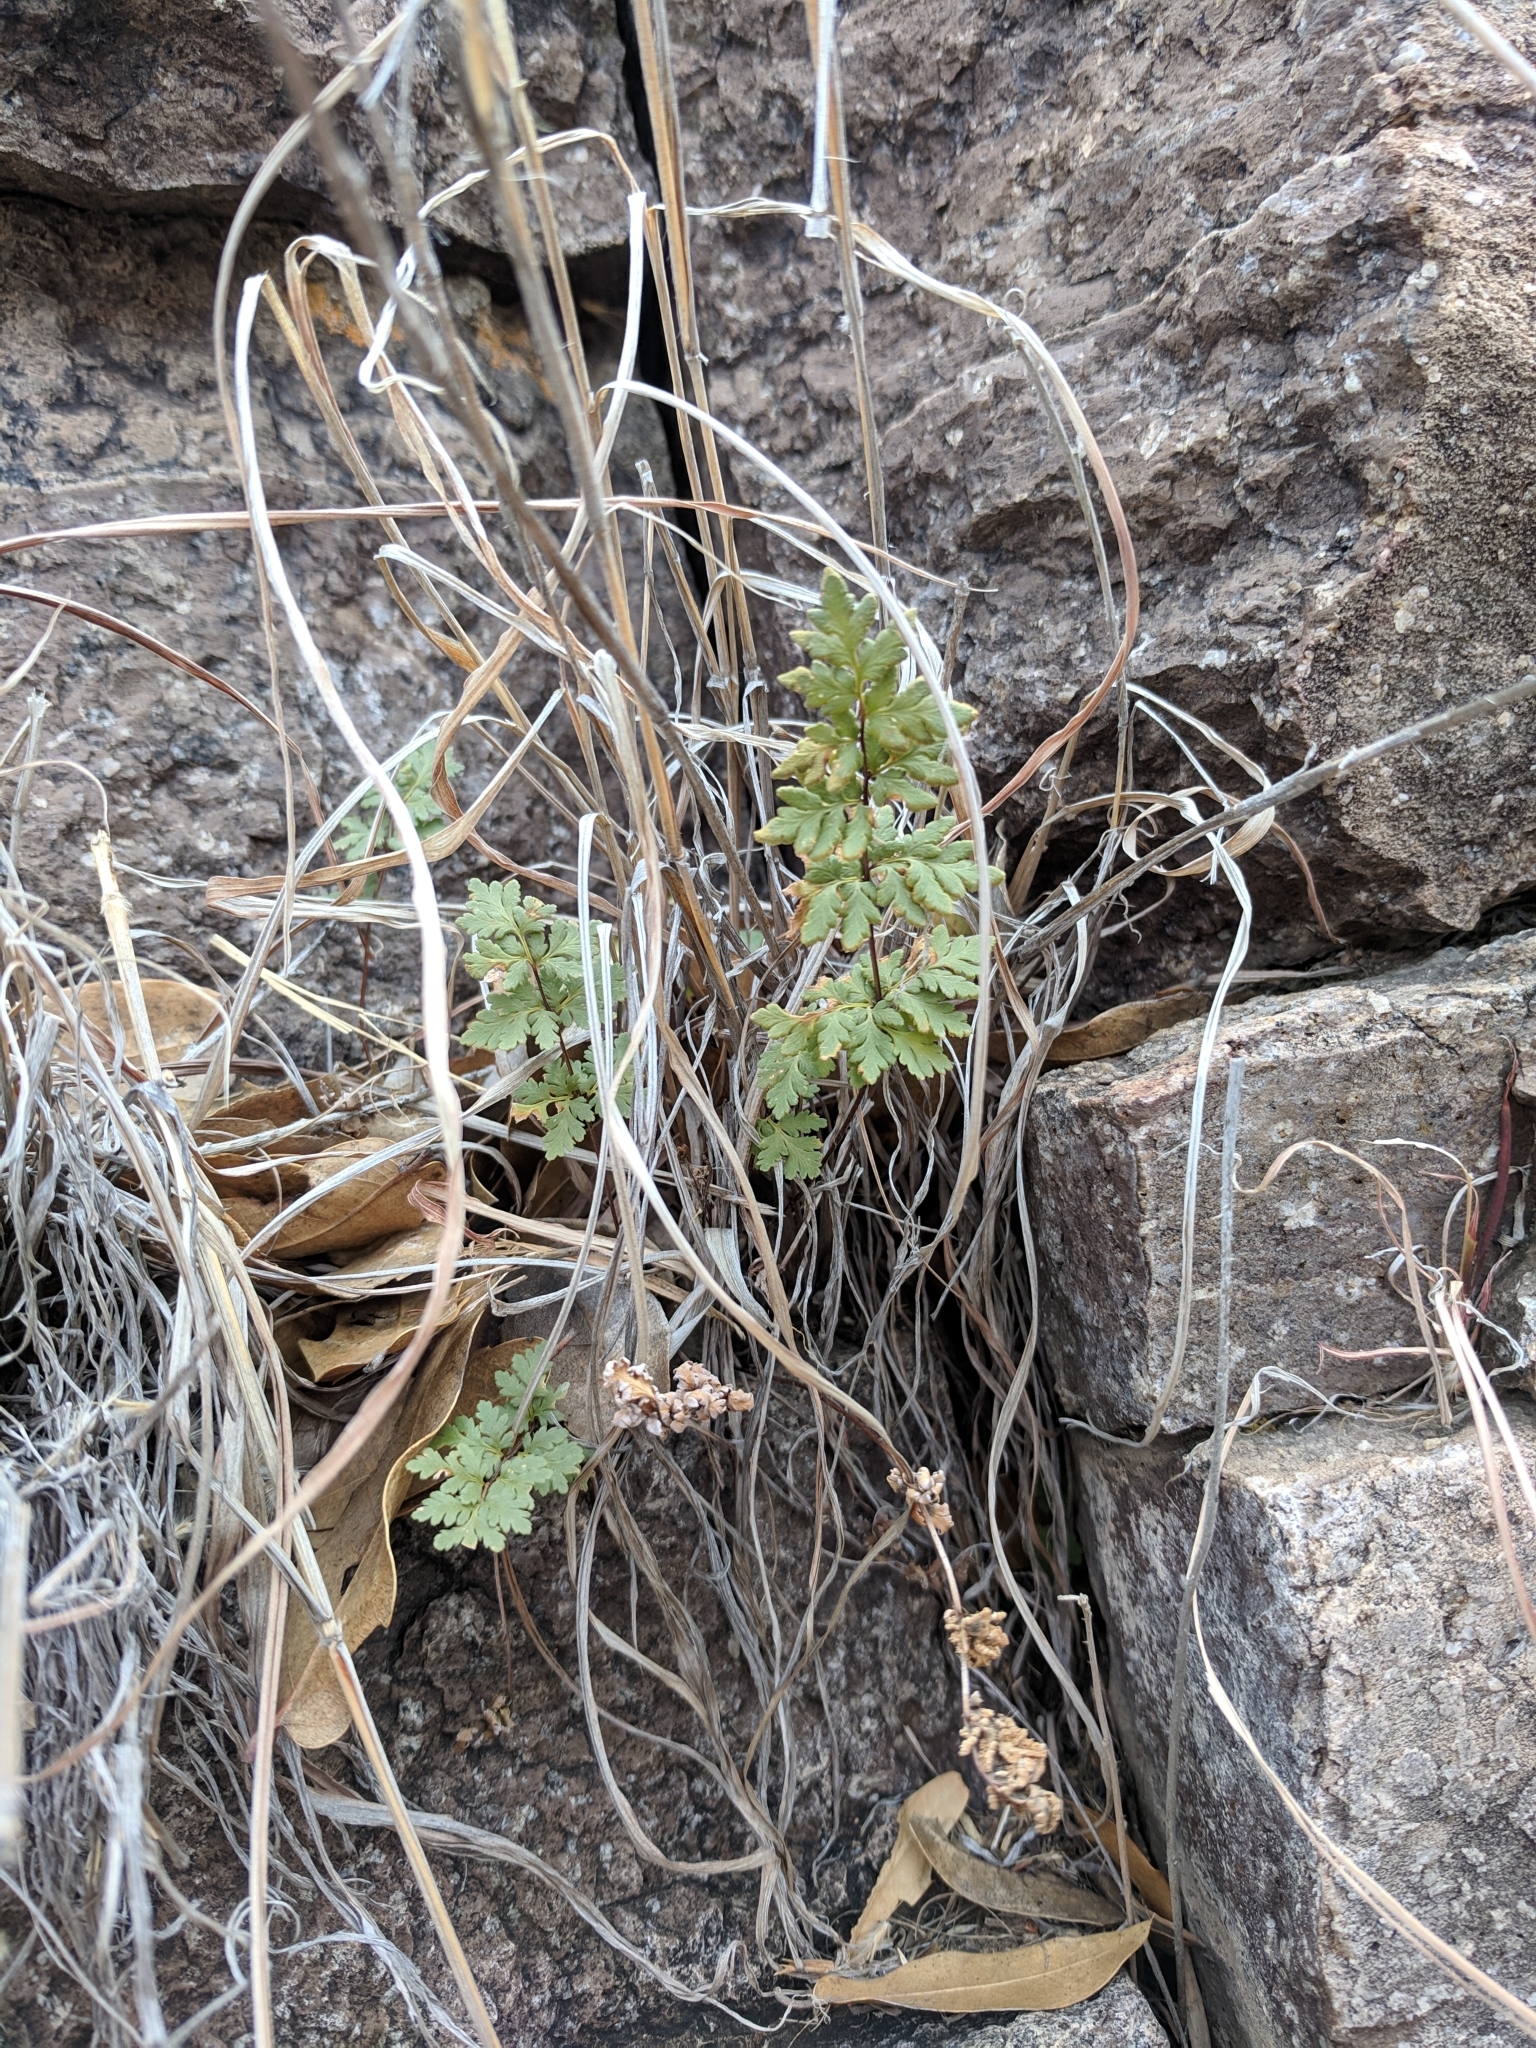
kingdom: Plantae
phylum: Tracheophyta
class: Polypodiopsida
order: Polypodiales
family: Pteridaceae
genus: Myriopteris
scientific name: Myriopteris wrightii
